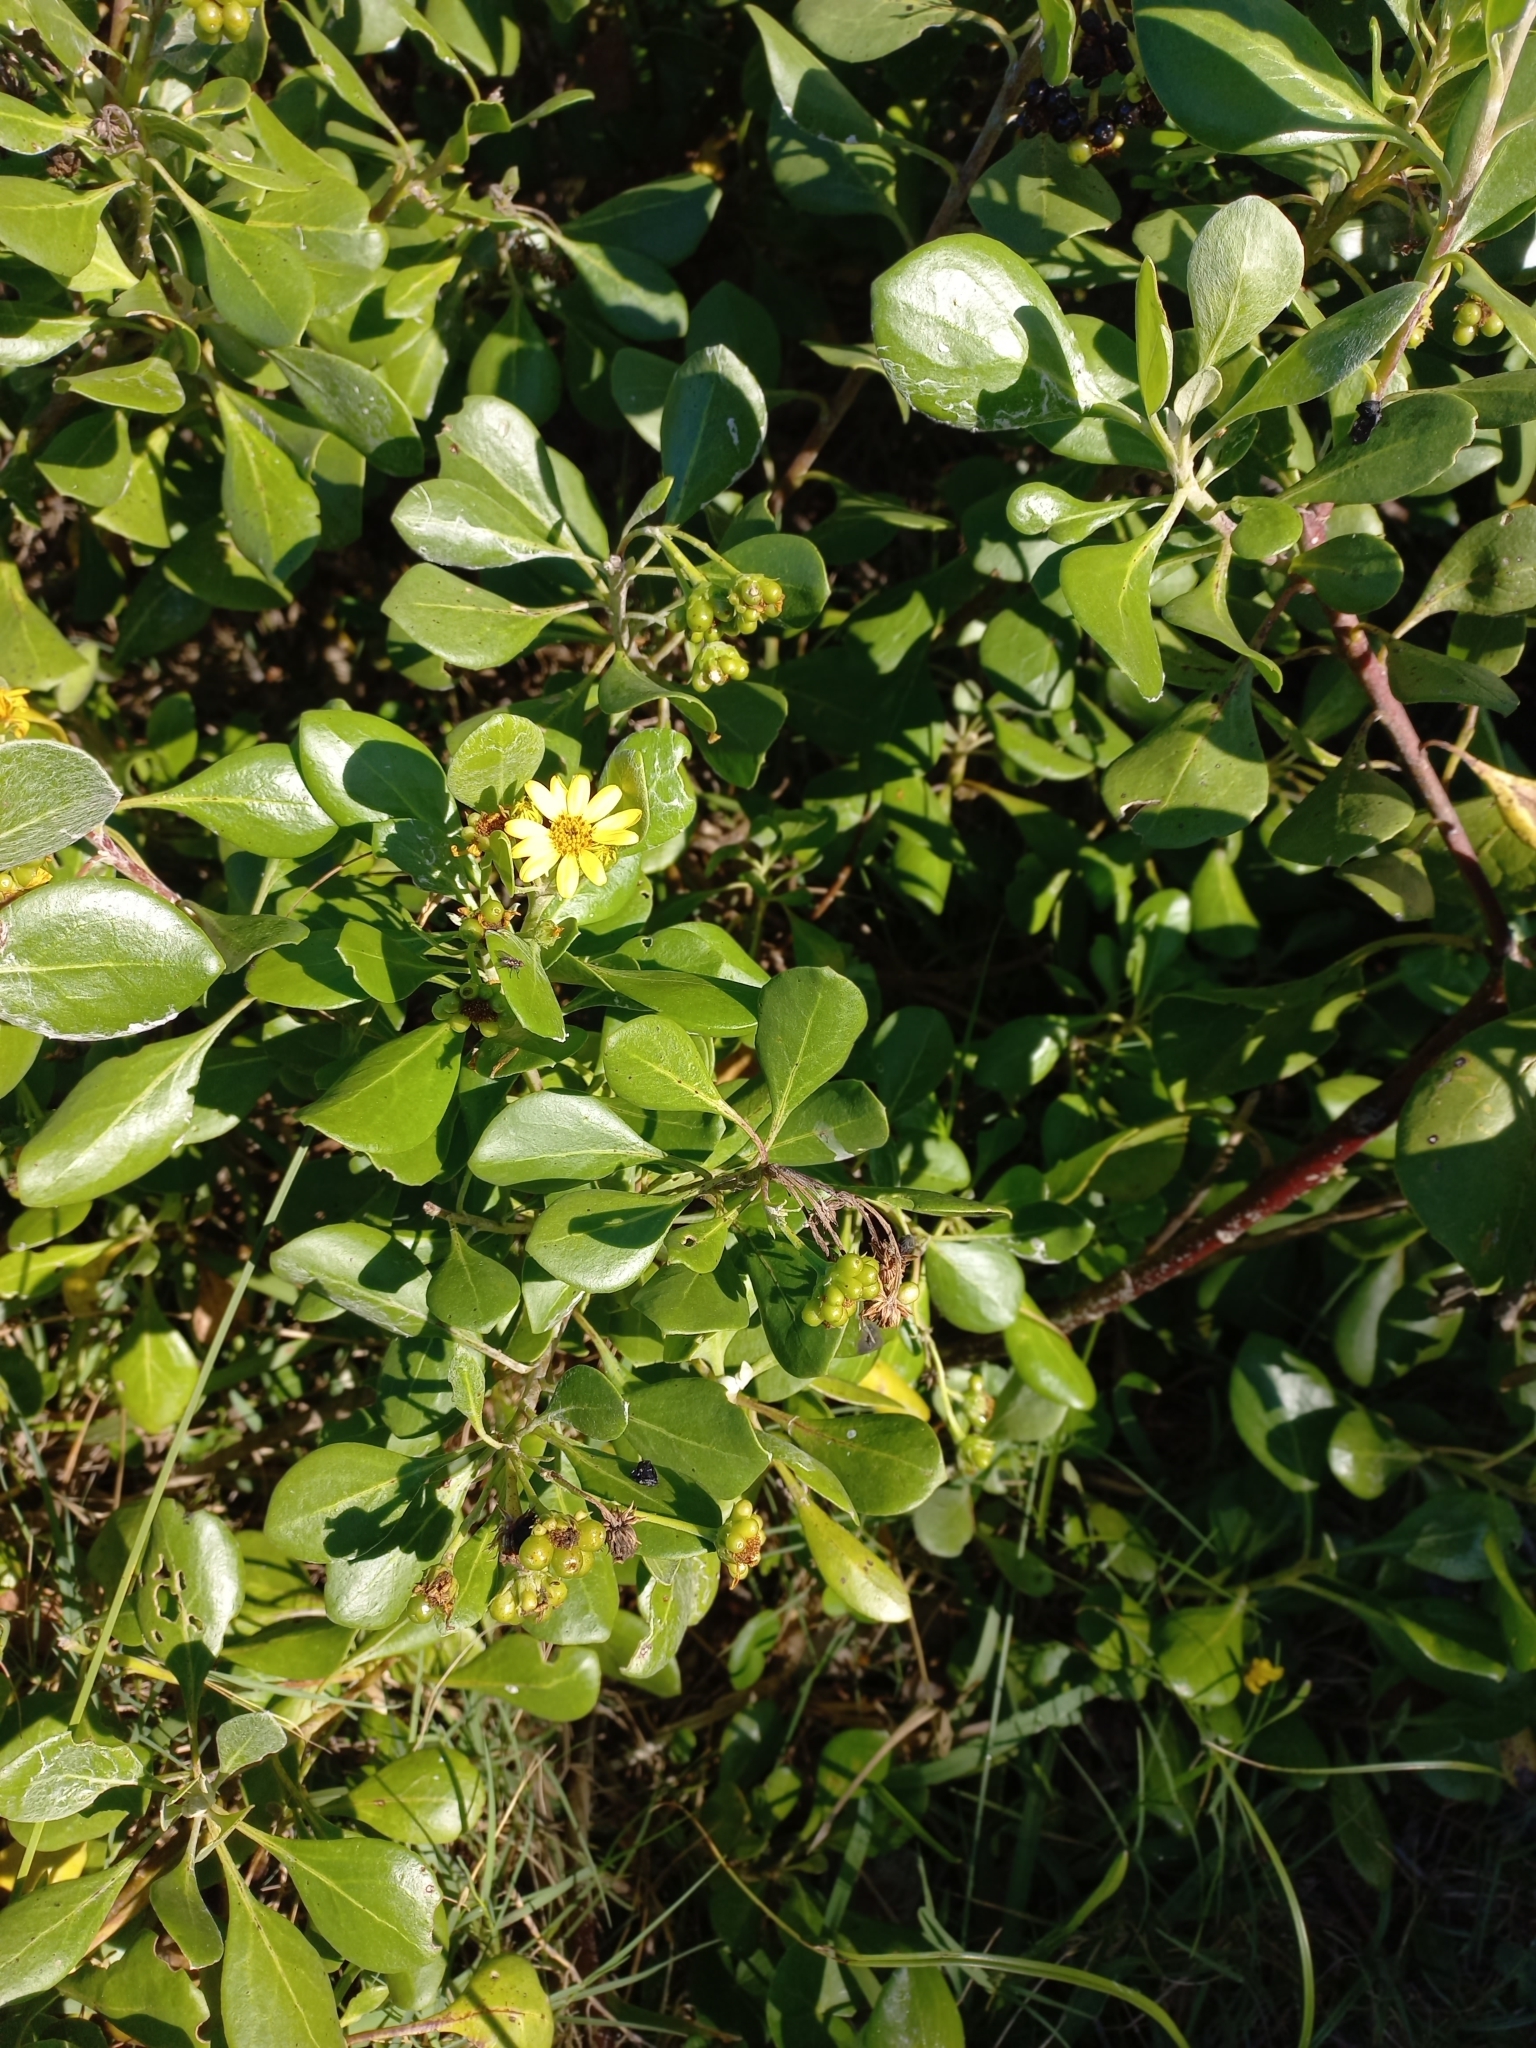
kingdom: Plantae
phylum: Tracheophyta
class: Magnoliopsida
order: Asterales
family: Asteraceae
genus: Osteospermum
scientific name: Osteospermum moniliferum
